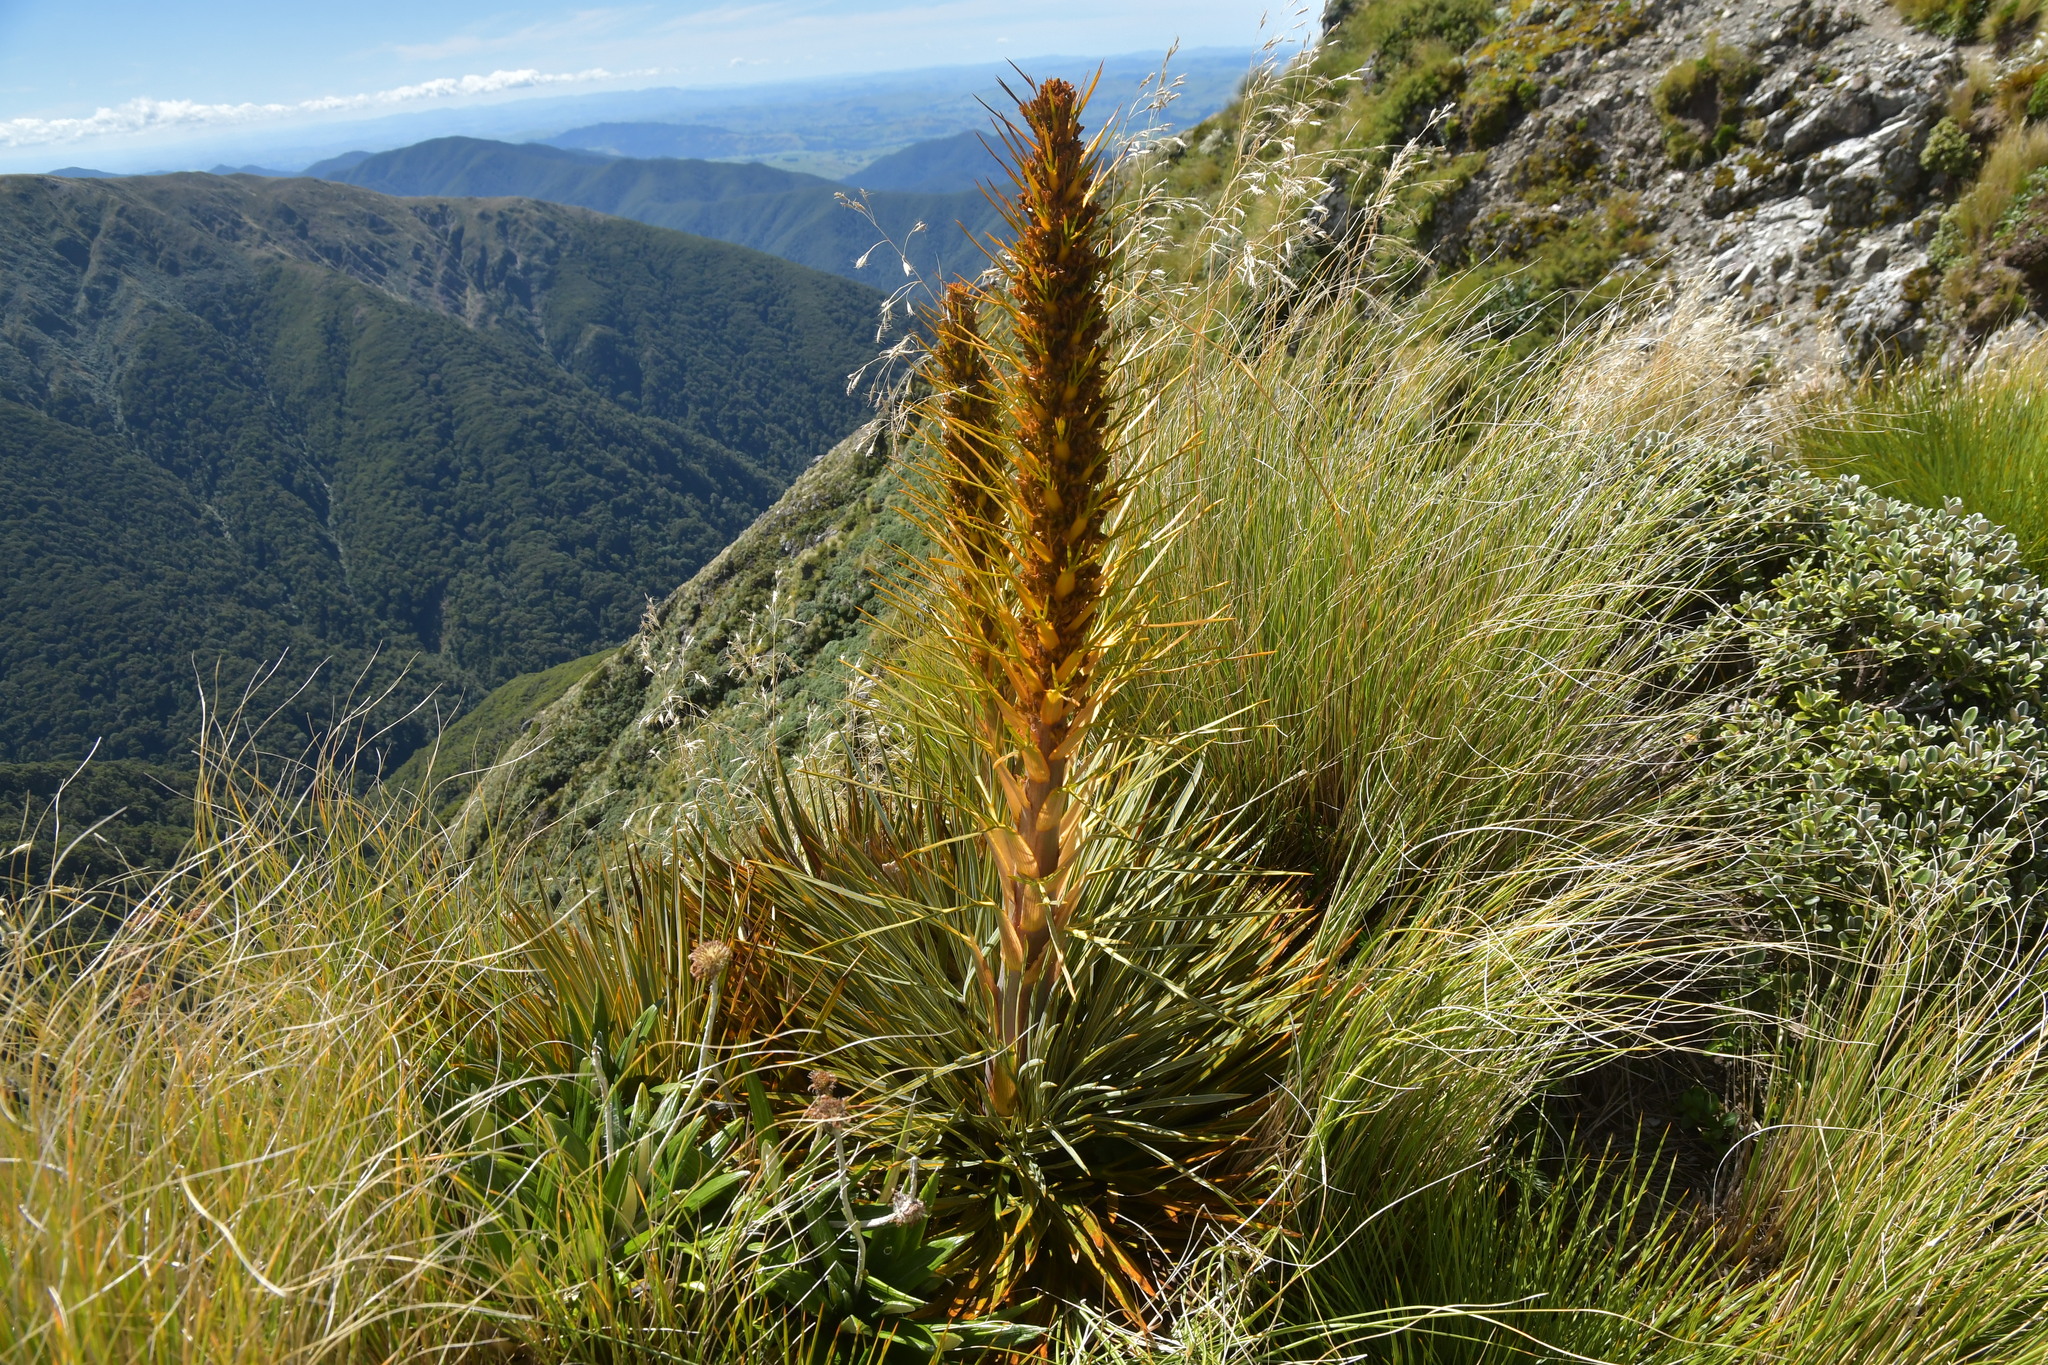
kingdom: Plantae
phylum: Tracheophyta
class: Magnoliopsida
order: Apiales
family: Apiaceae
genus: Aciphylla
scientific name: Aciphylla colensoi
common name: Colenso's spaniard
